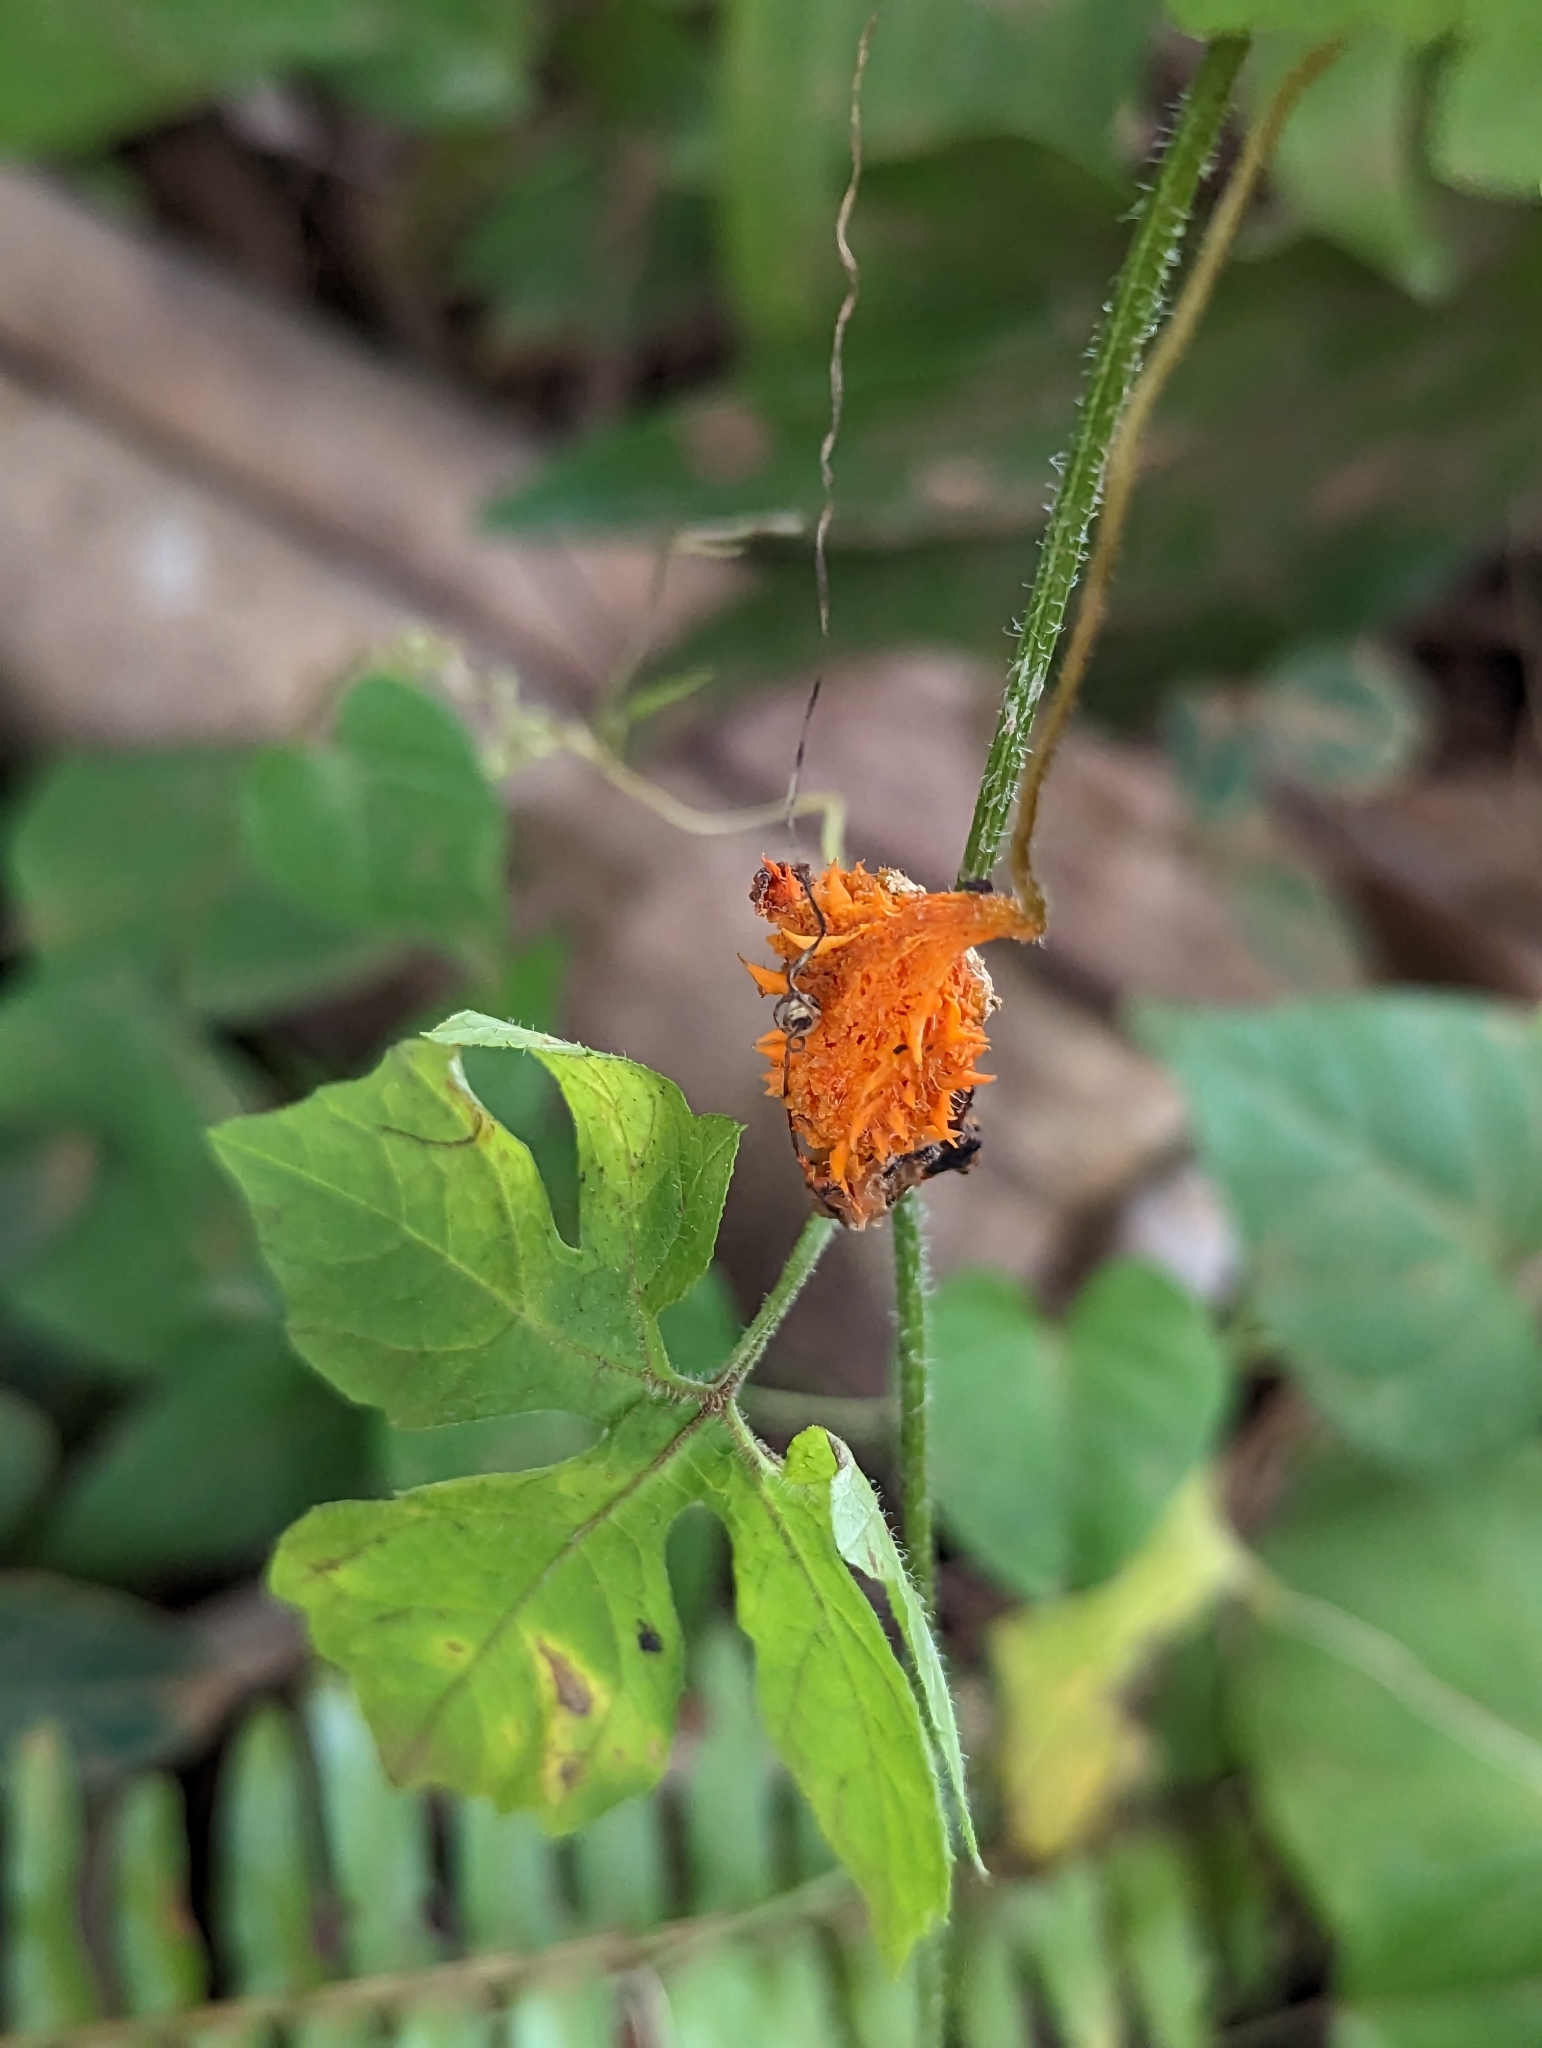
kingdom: Plantae
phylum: Tracheophyta
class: Magnoliopsida
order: Cucurbitales
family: Cucurbitaceae
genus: Momordica
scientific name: Momordica charantia
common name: Balsampear
